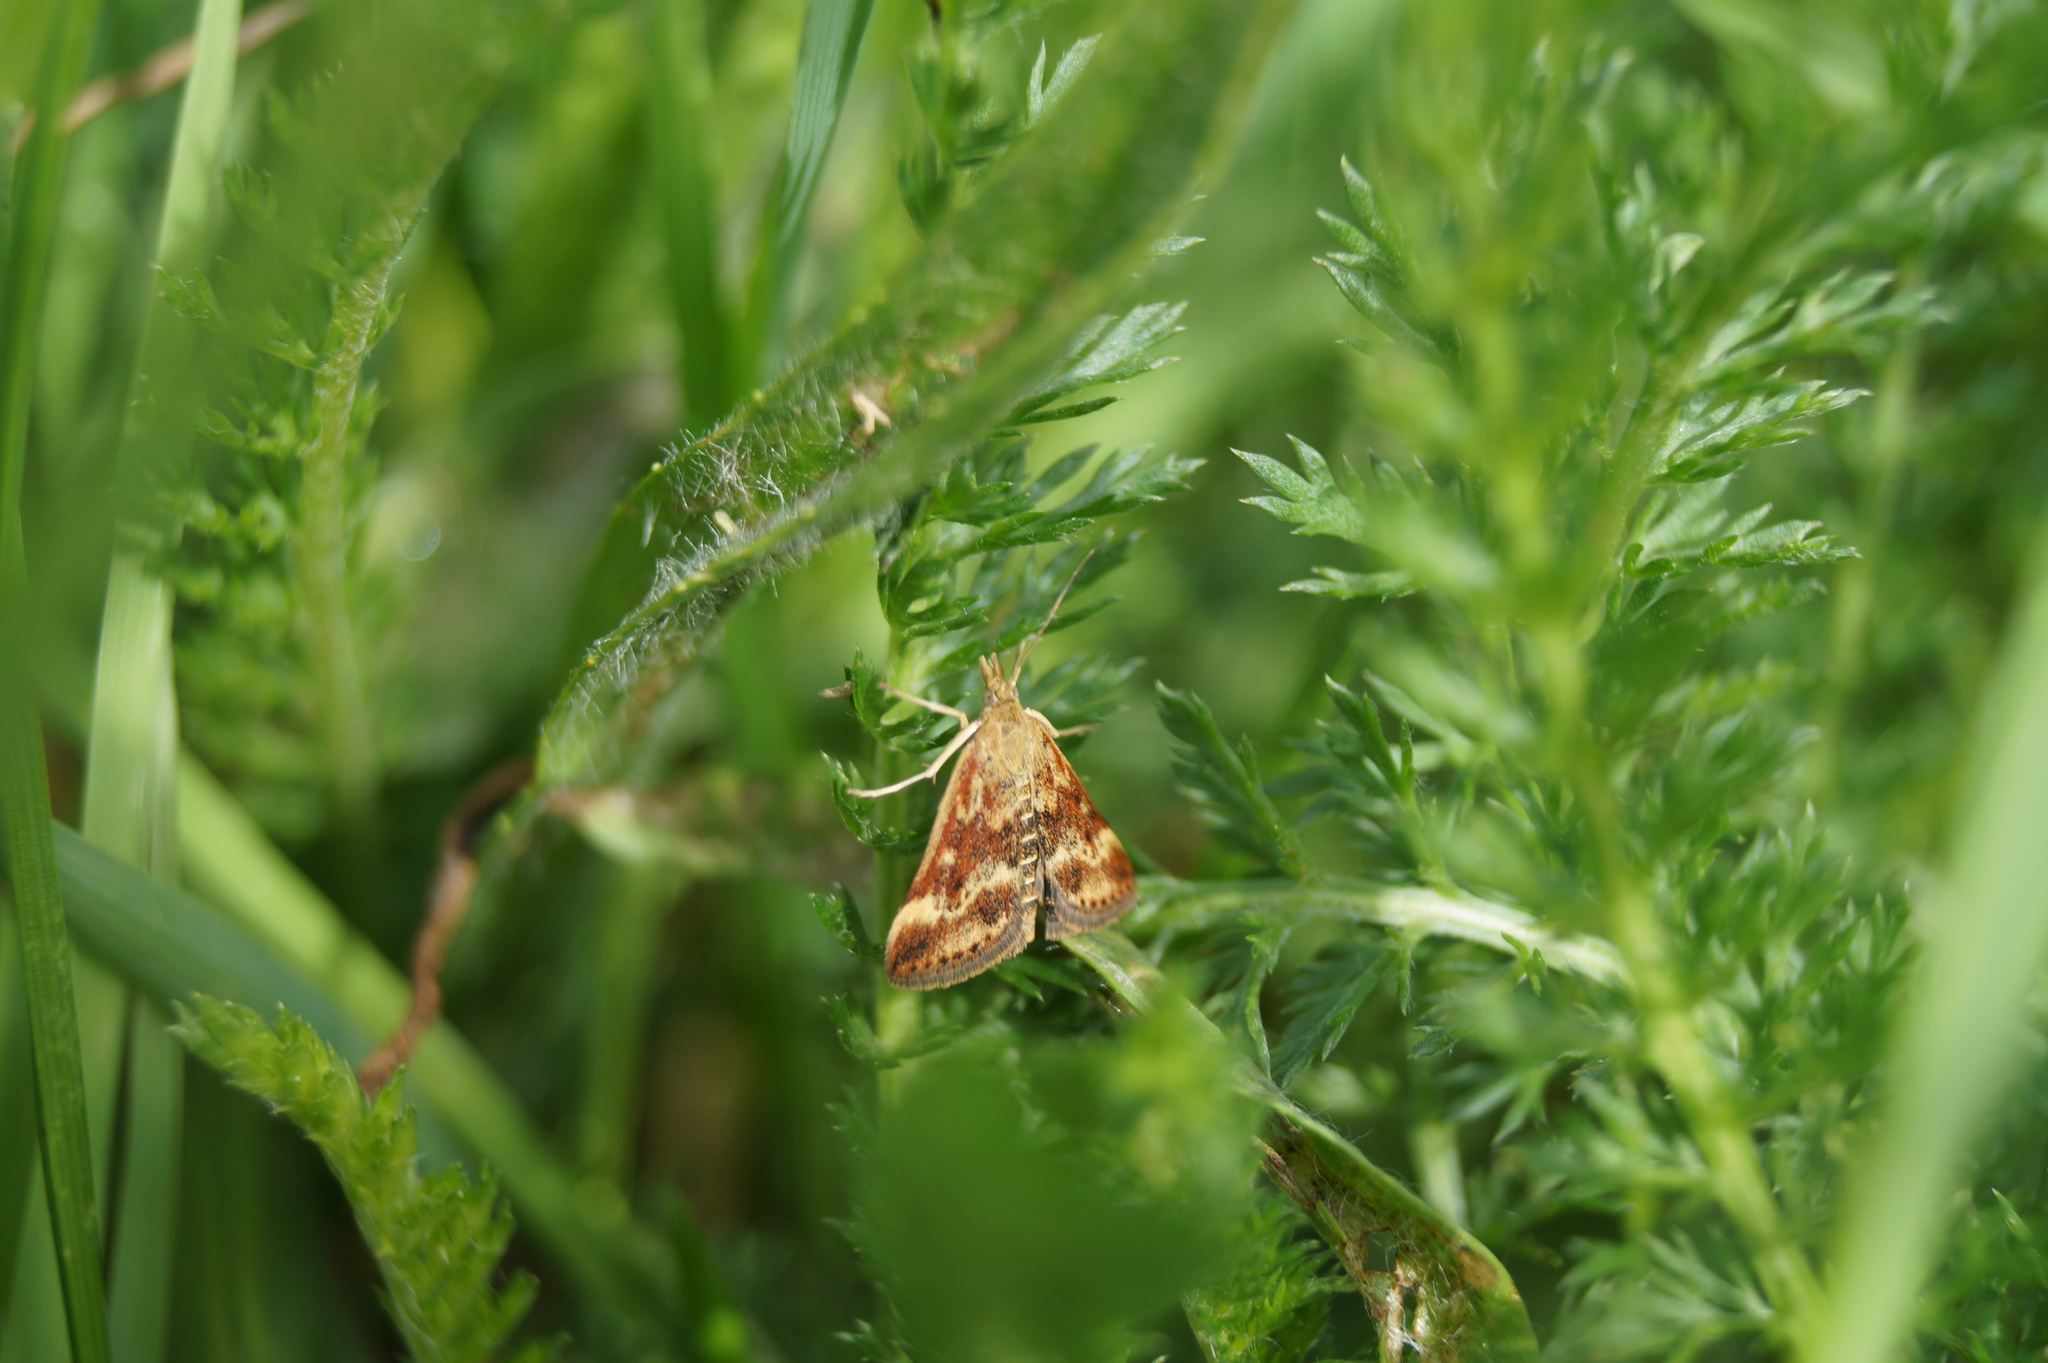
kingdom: Animalia
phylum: Arthropoda
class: Insecta
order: Lepidoptera
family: Crambidae
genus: Pyrausta
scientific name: Pyrausta despicata
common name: Straw-barred pearl
